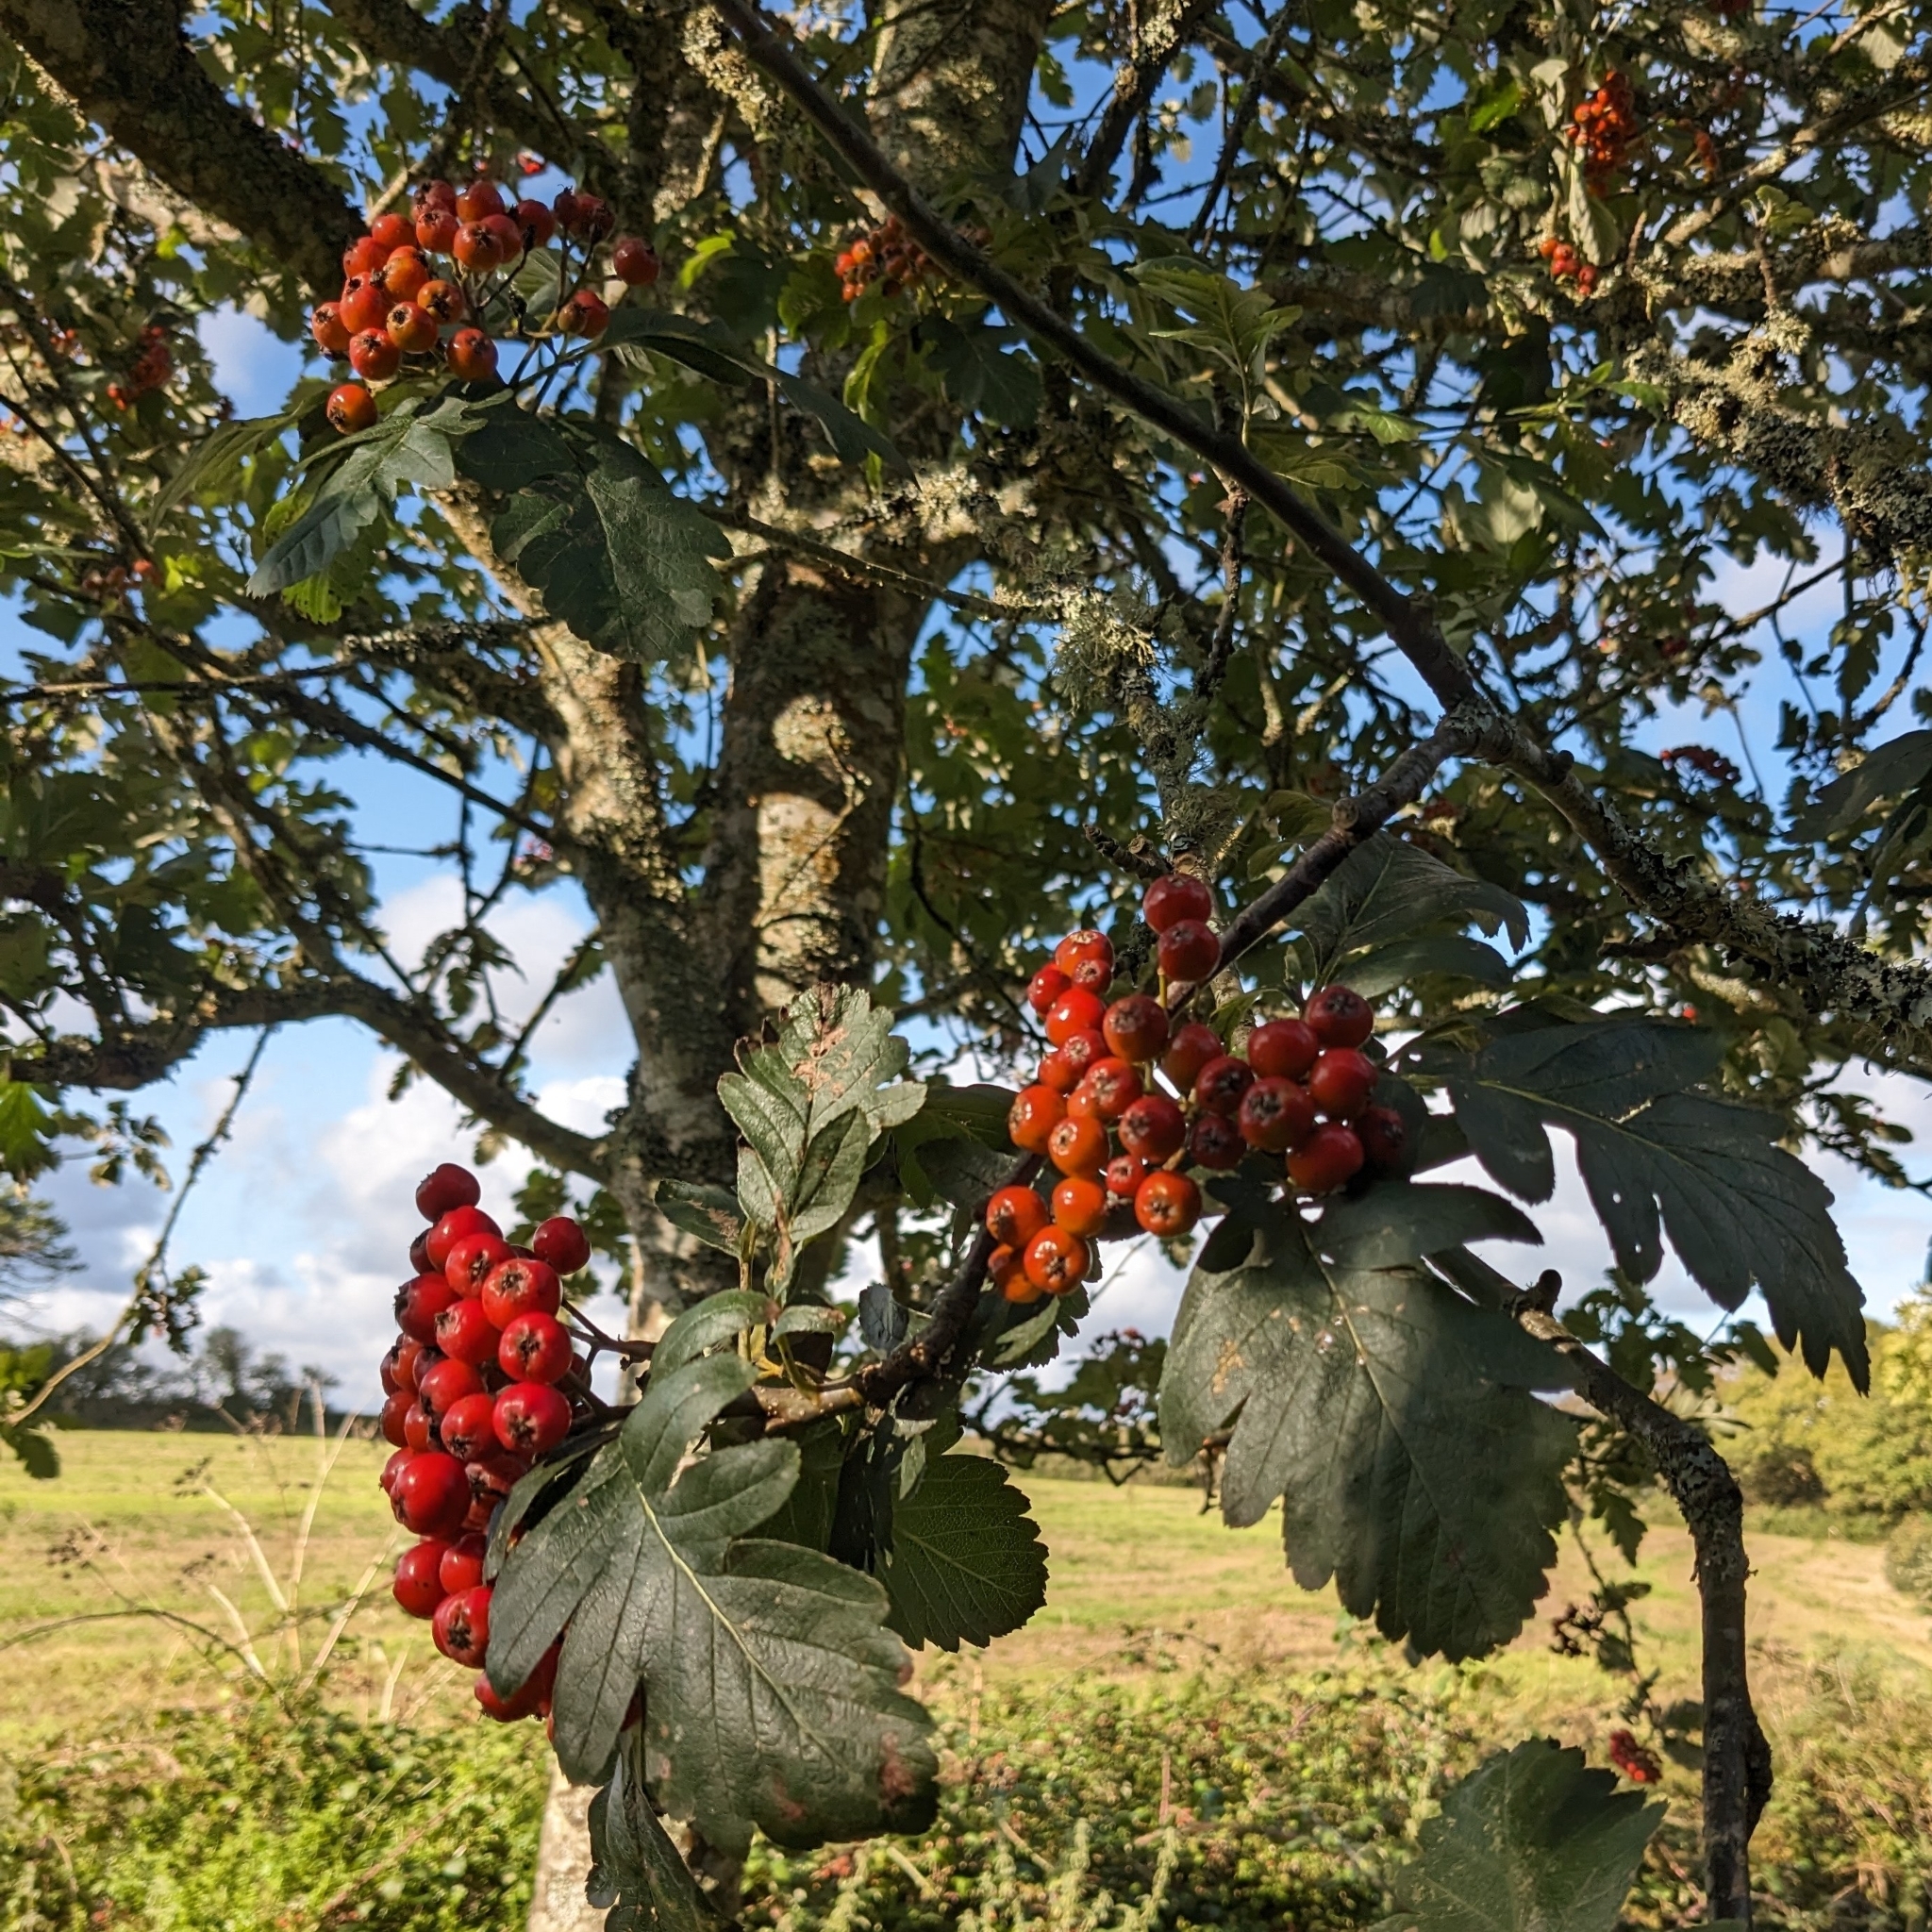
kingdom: Plantae
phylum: Tracheophyta
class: Magnoliopsida
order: Rosales
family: Rosaceae
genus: Hedlundia
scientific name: Hedlundia thuringiaca
